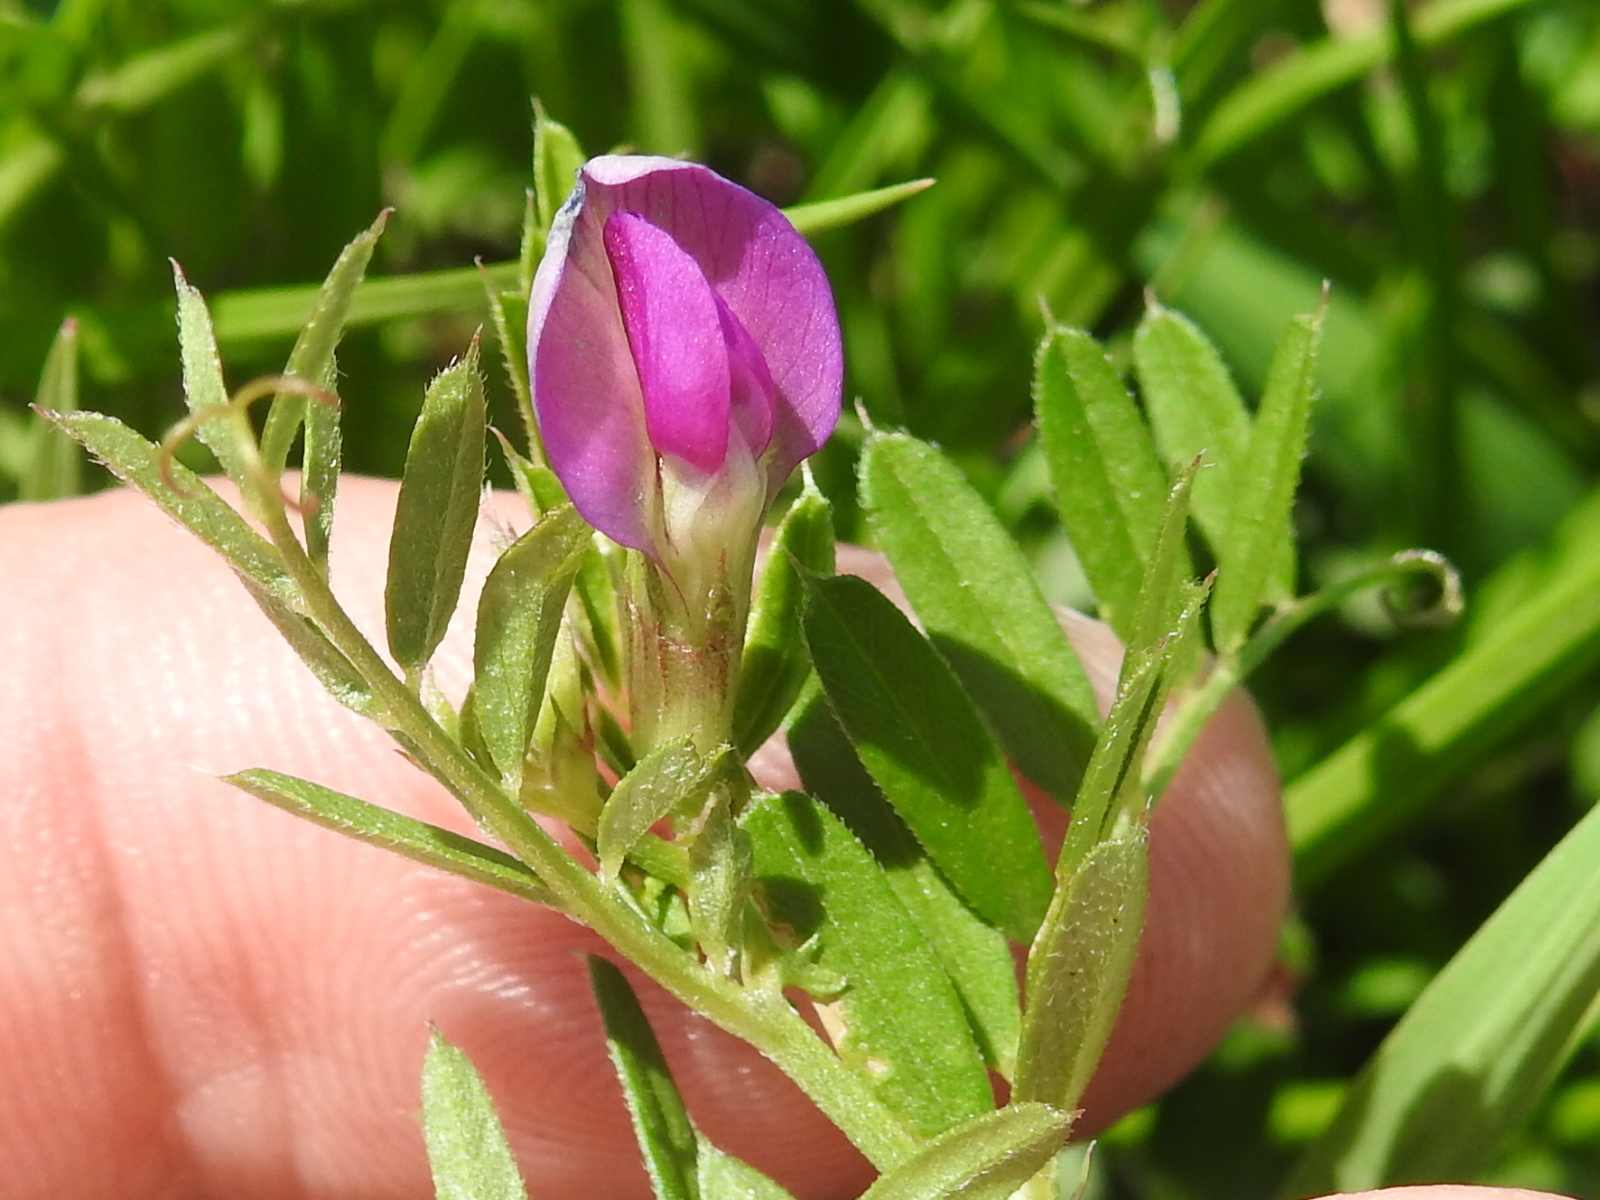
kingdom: Plantae
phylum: Tracheophyta
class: Magnoliopsida
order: Fabales
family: Fabaceae
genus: Vicia
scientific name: Vicia sativa
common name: Garden vetch
